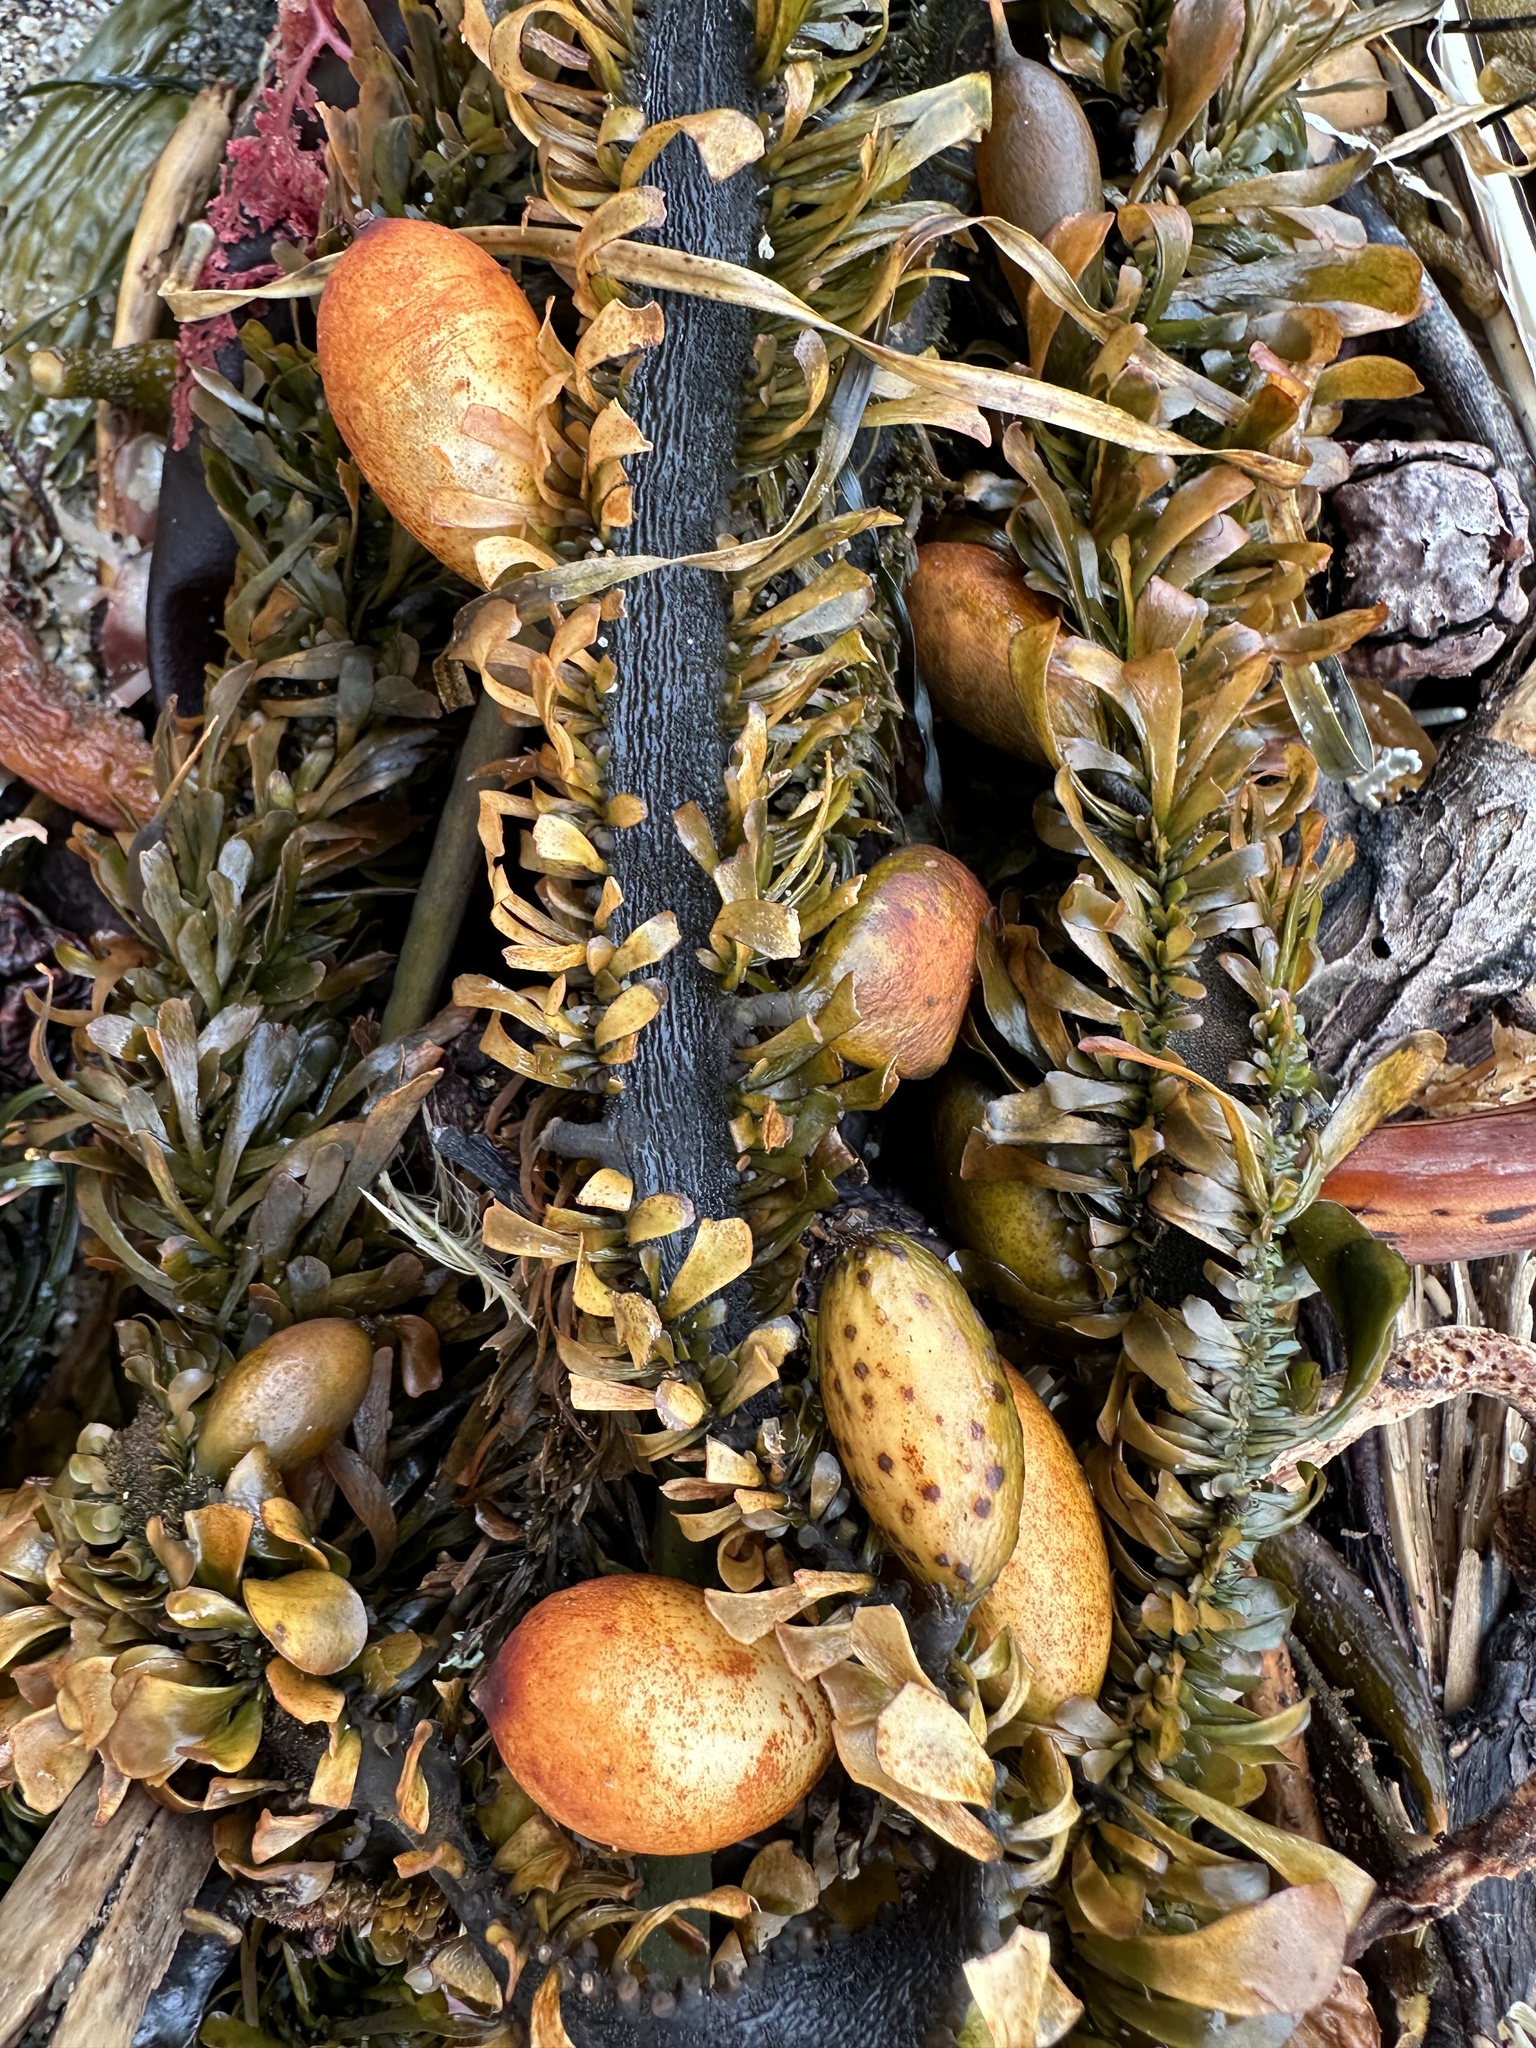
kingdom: Chromista
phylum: Ochrophyta
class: Phaeophyceae
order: Laminariales
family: Lessoniaceae
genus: Egregia
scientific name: Egregia menziesii
